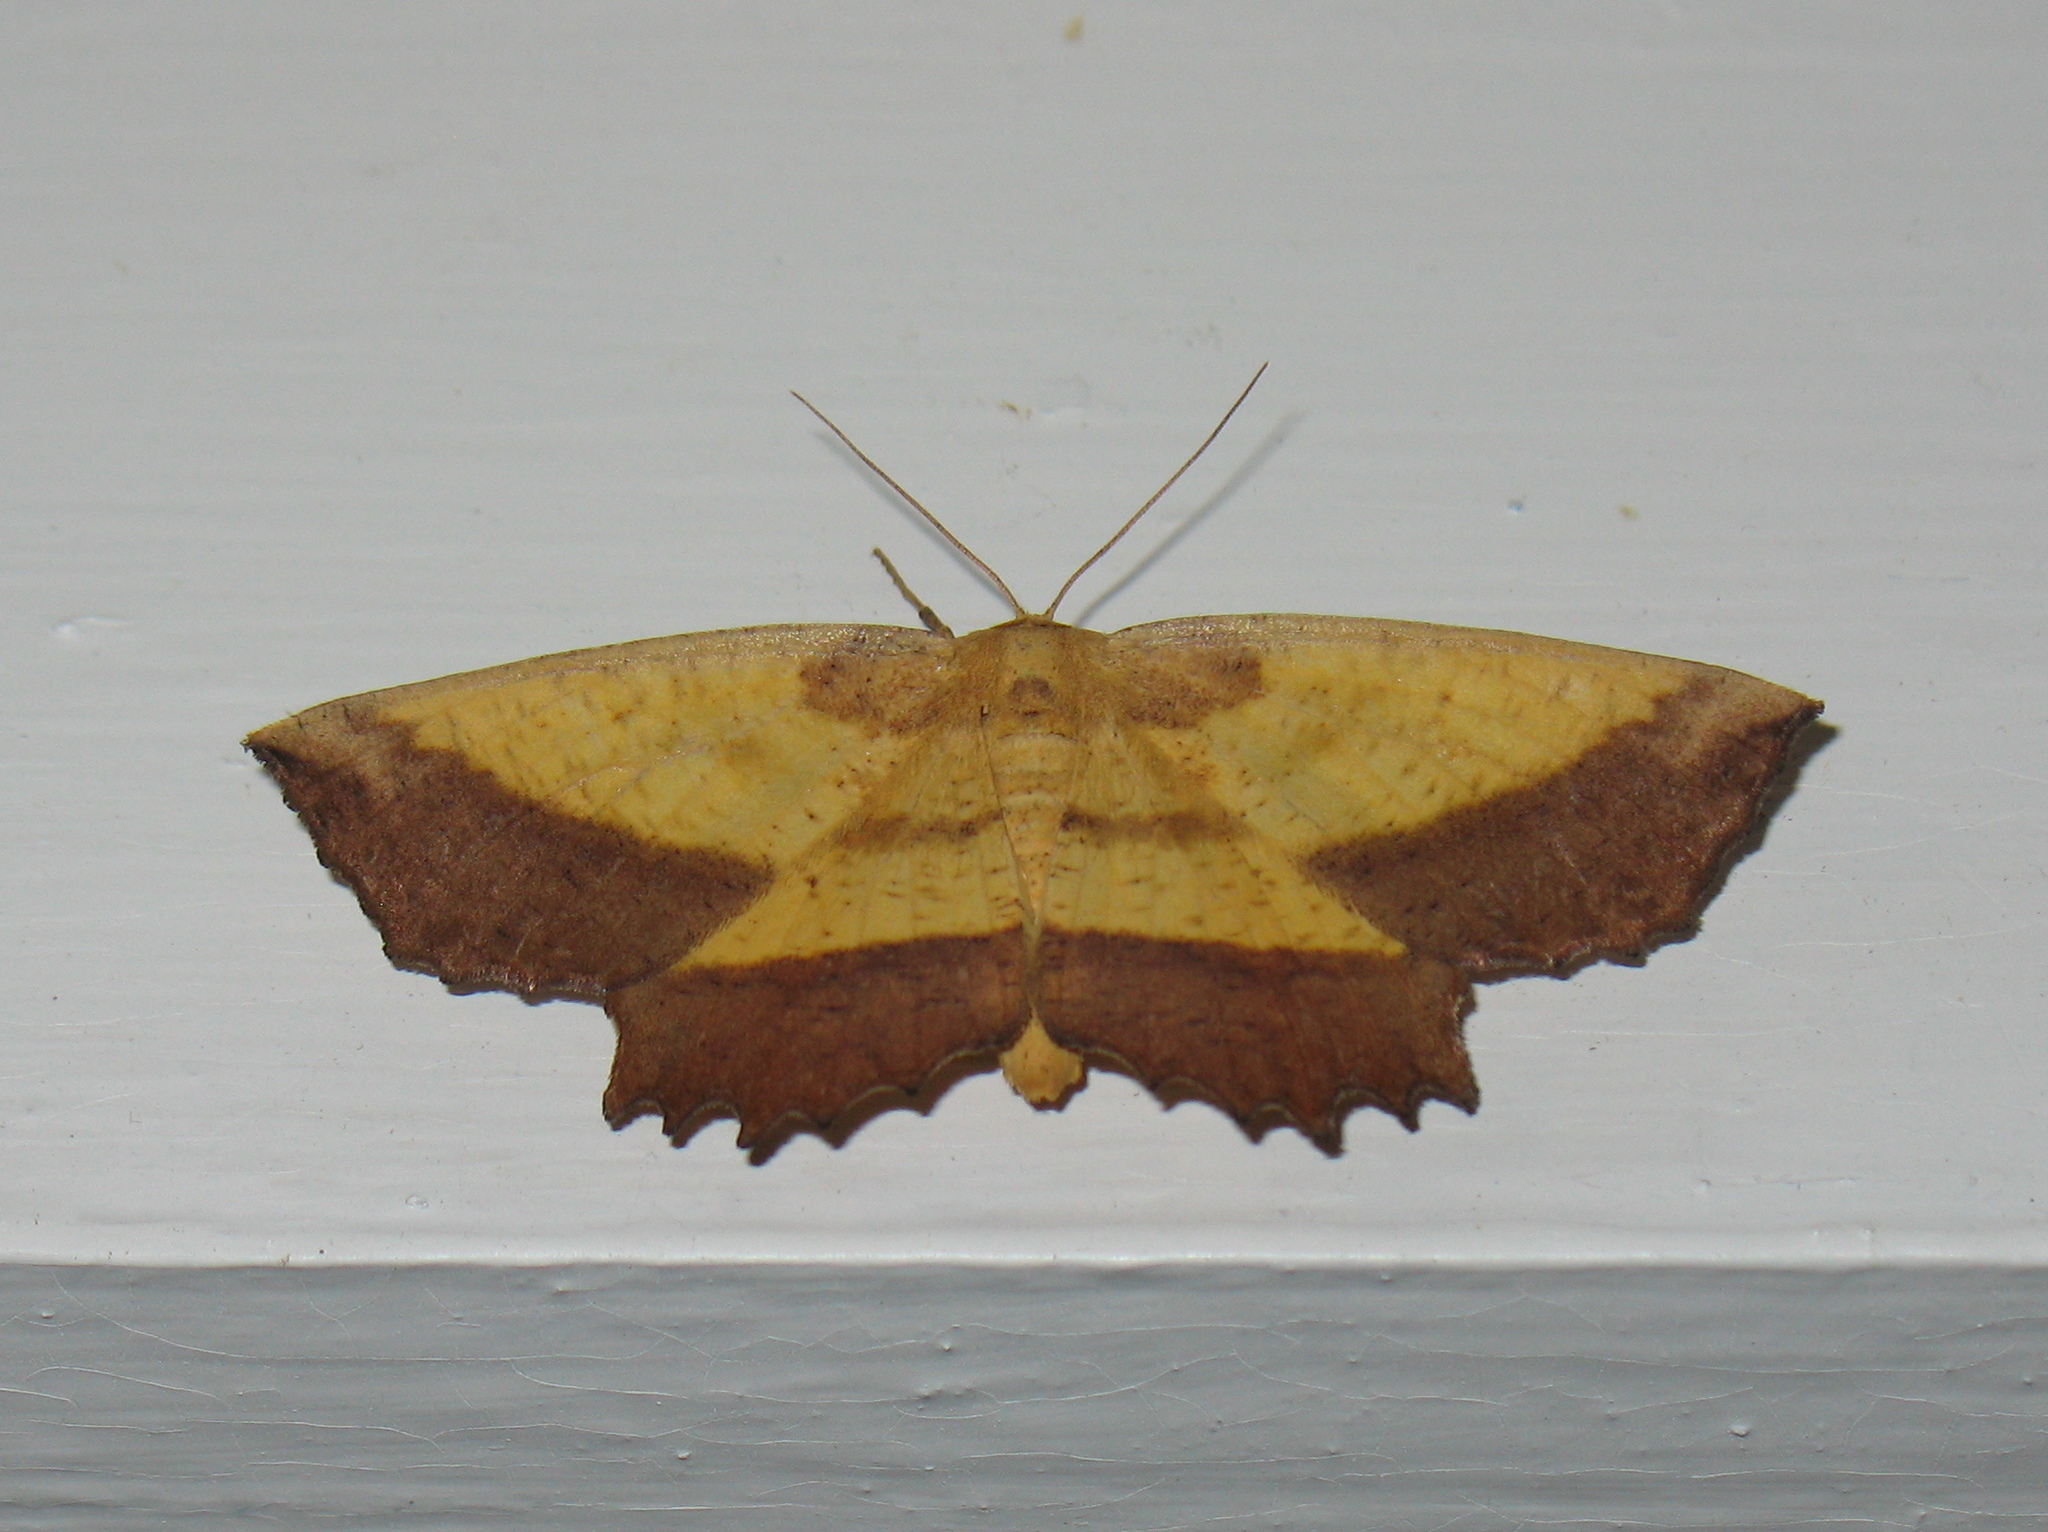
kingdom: Animalia
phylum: Arthropoda
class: Insecta
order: Lepidoptera
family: Geometridae
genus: Euchlaena
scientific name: Euchlaena serrata
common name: Saw wing
